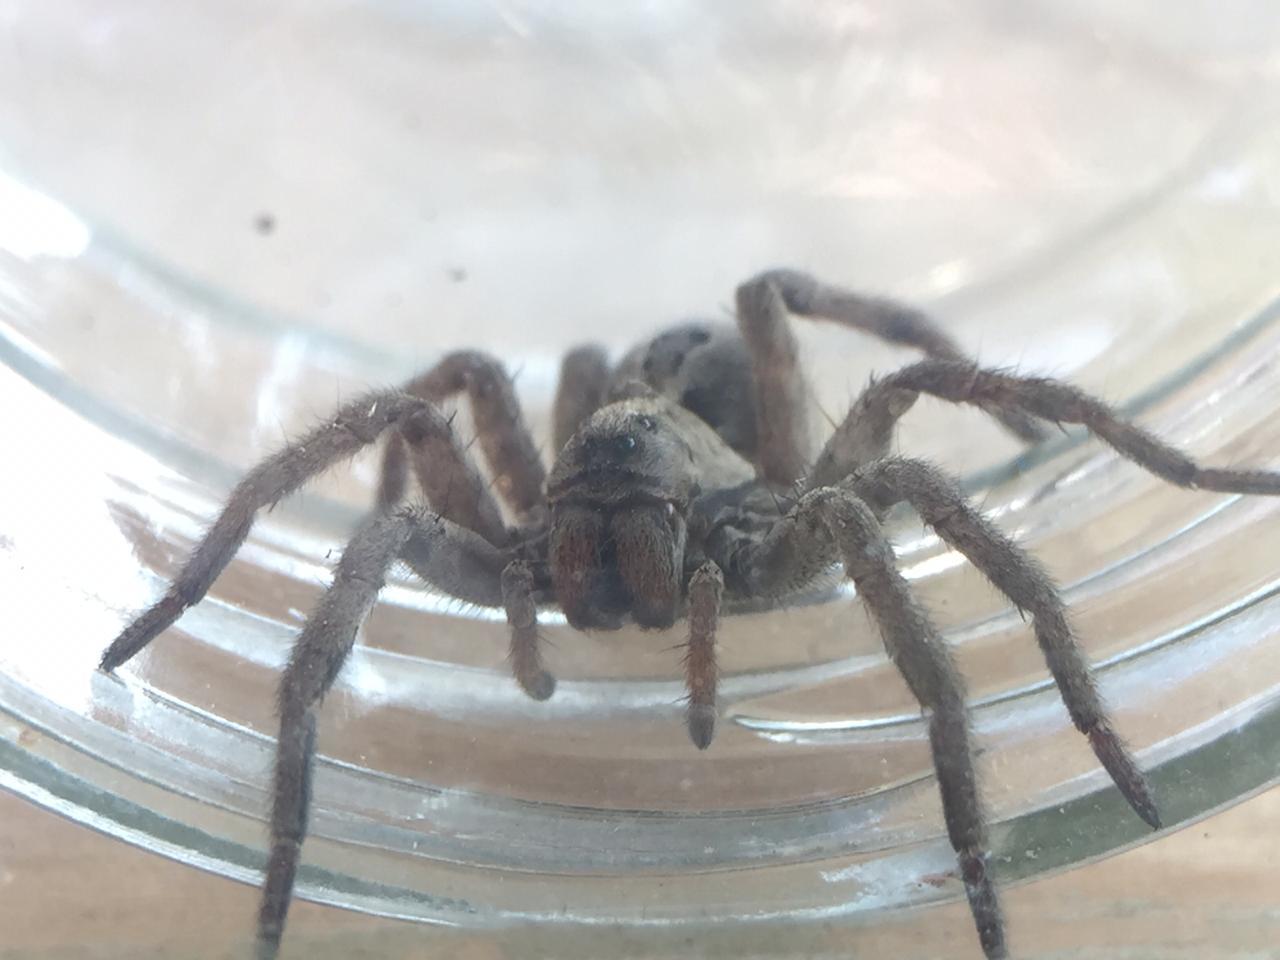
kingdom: Animalia
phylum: Arthropoda
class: Arachnida
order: Araneae
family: Lycosidae
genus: Lycosa
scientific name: Lycosa erythrognatha
